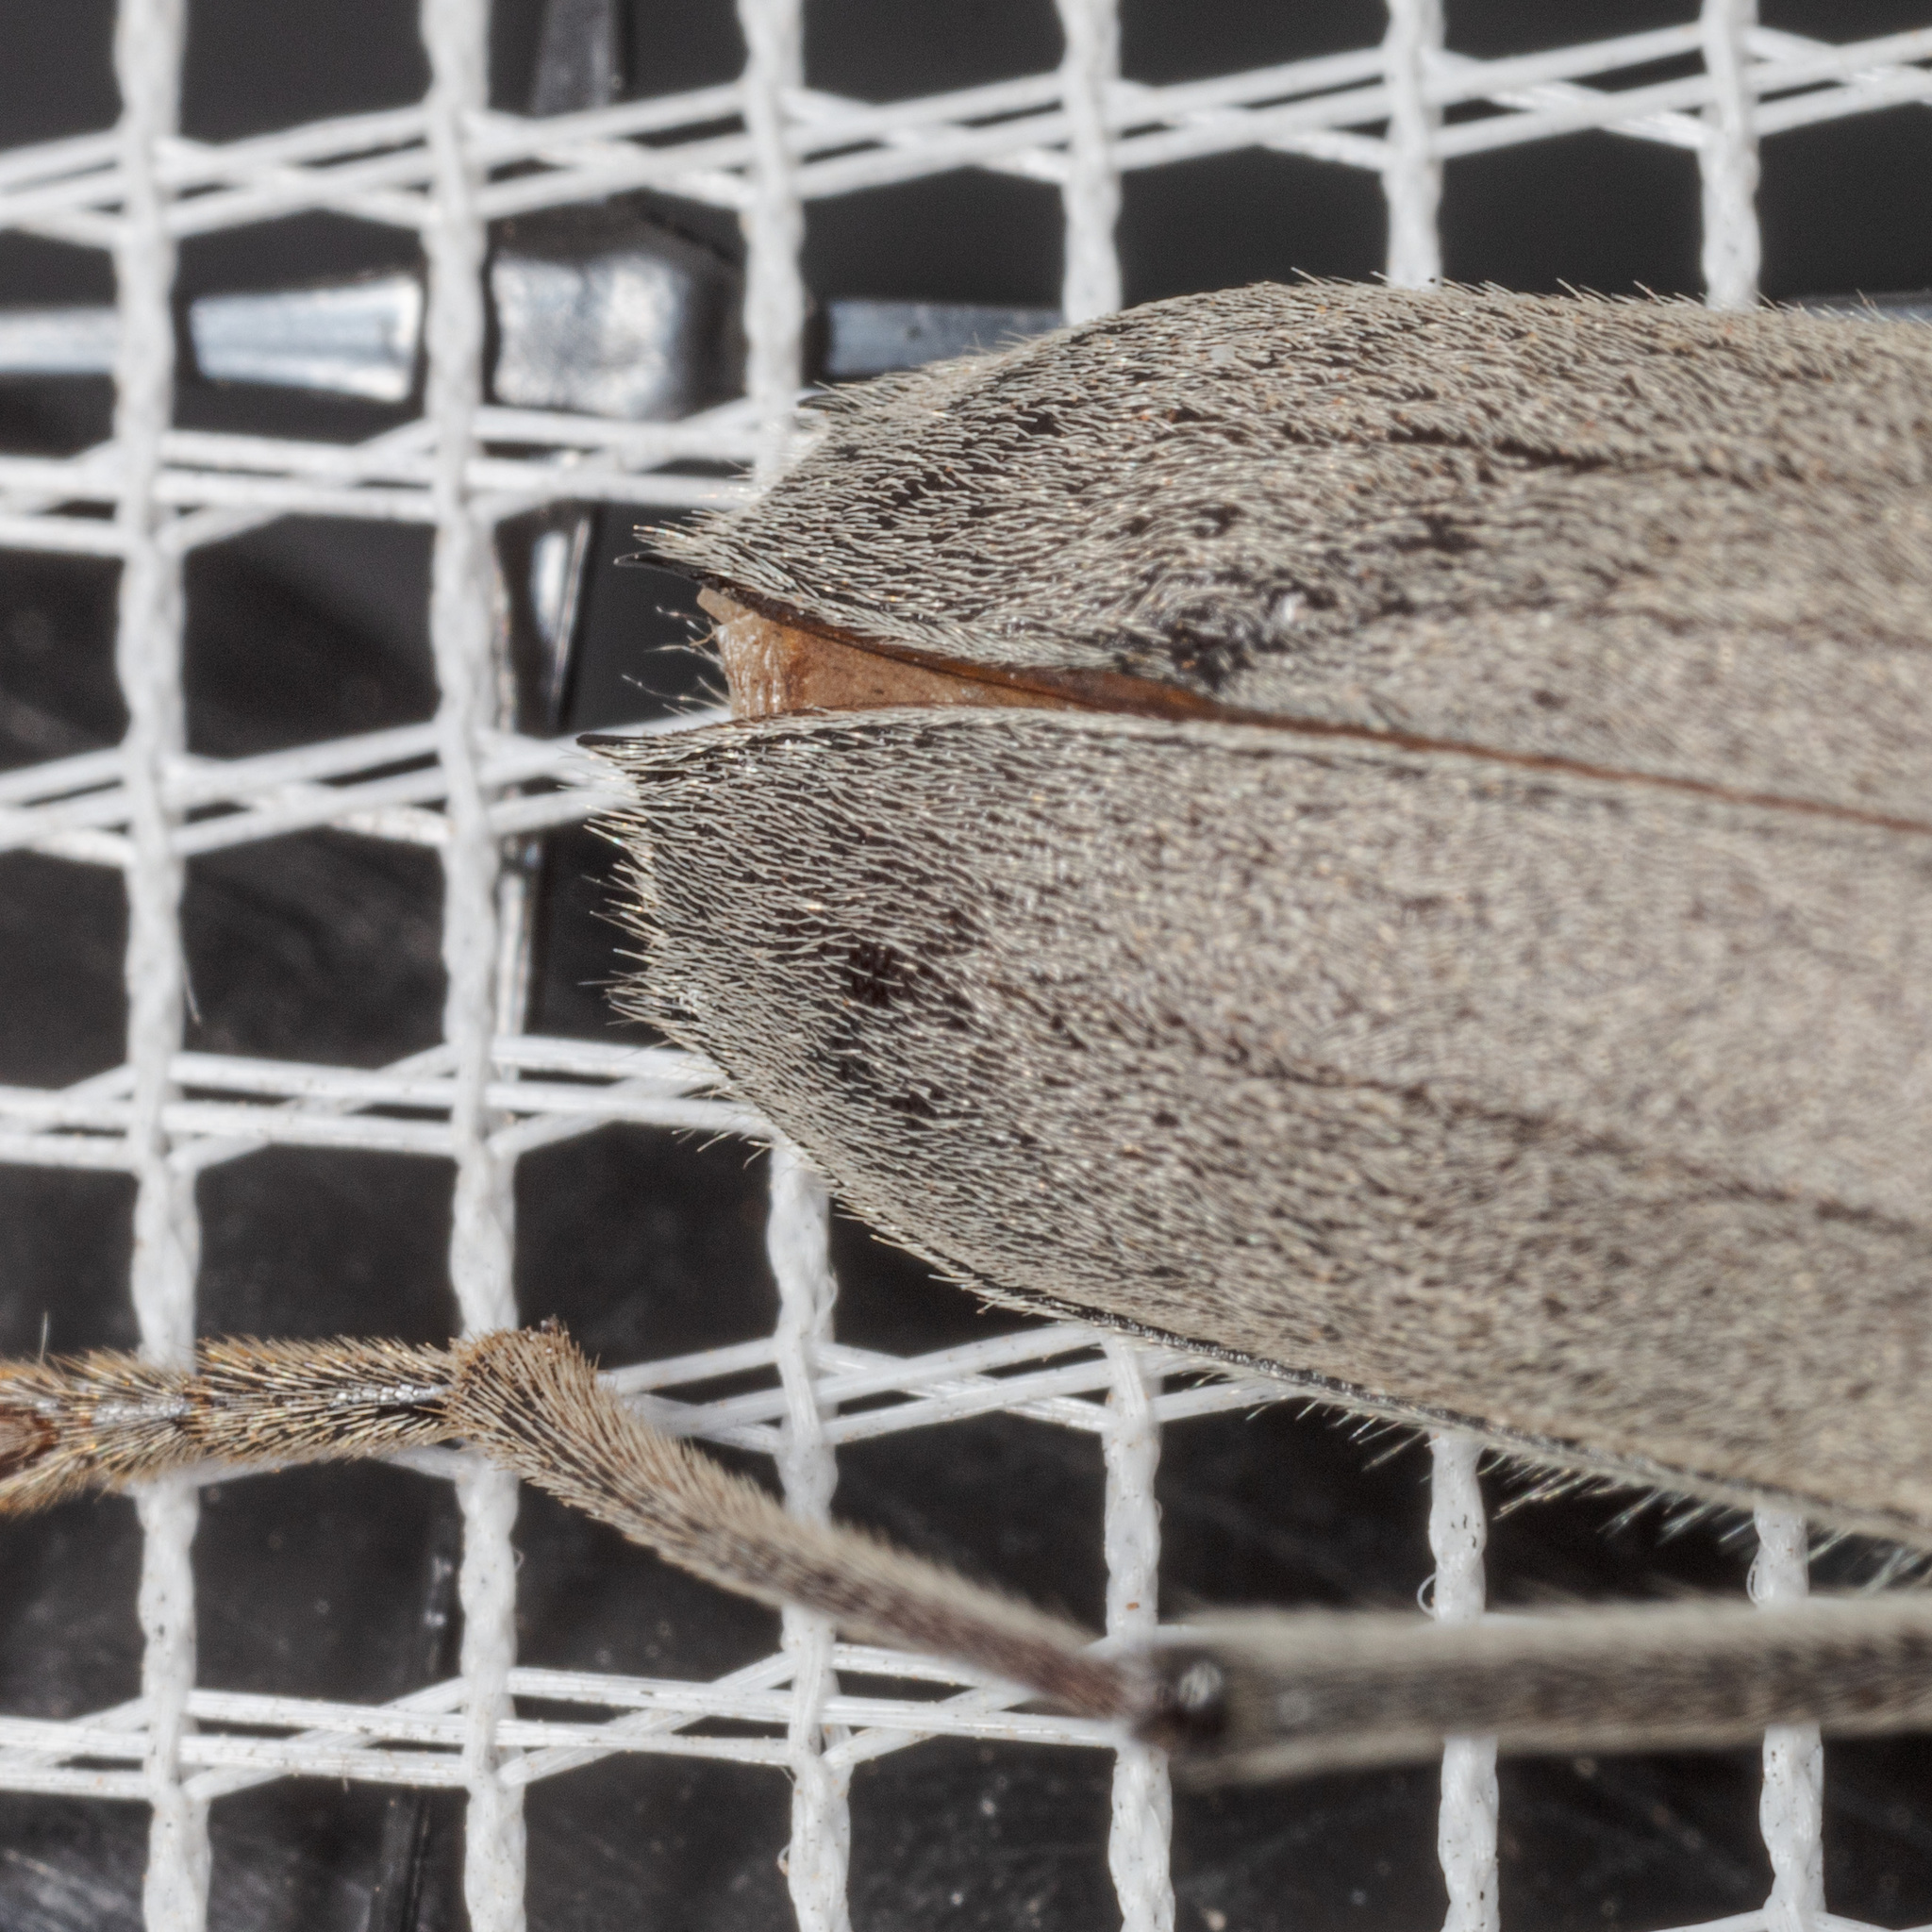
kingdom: Animalia
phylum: Arthropoda
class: Insecta
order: Coleoptera
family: Cerambycidae
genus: Knulliana
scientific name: Knulliana cincta
